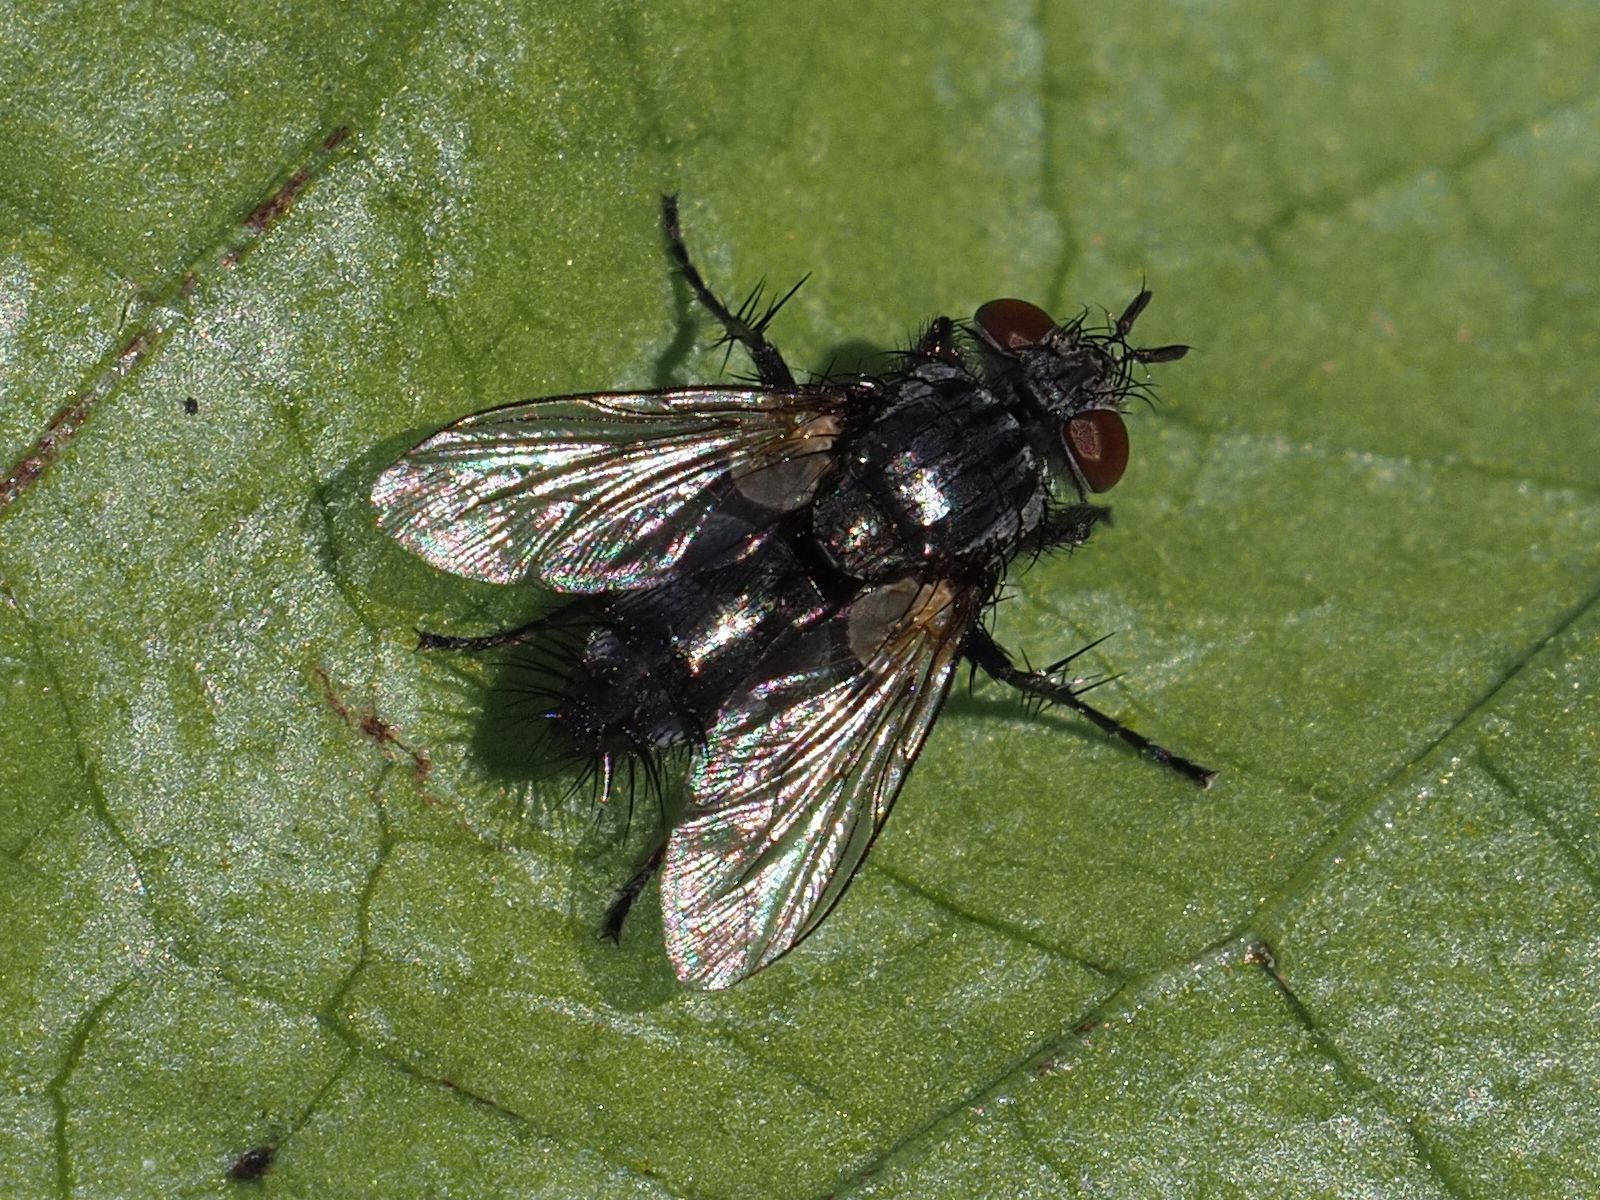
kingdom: Animalia
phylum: Arthropoda
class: Insecta
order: Diptera
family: Tachinidae
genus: Voria
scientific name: Voria ruralis
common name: Parasitic fly
